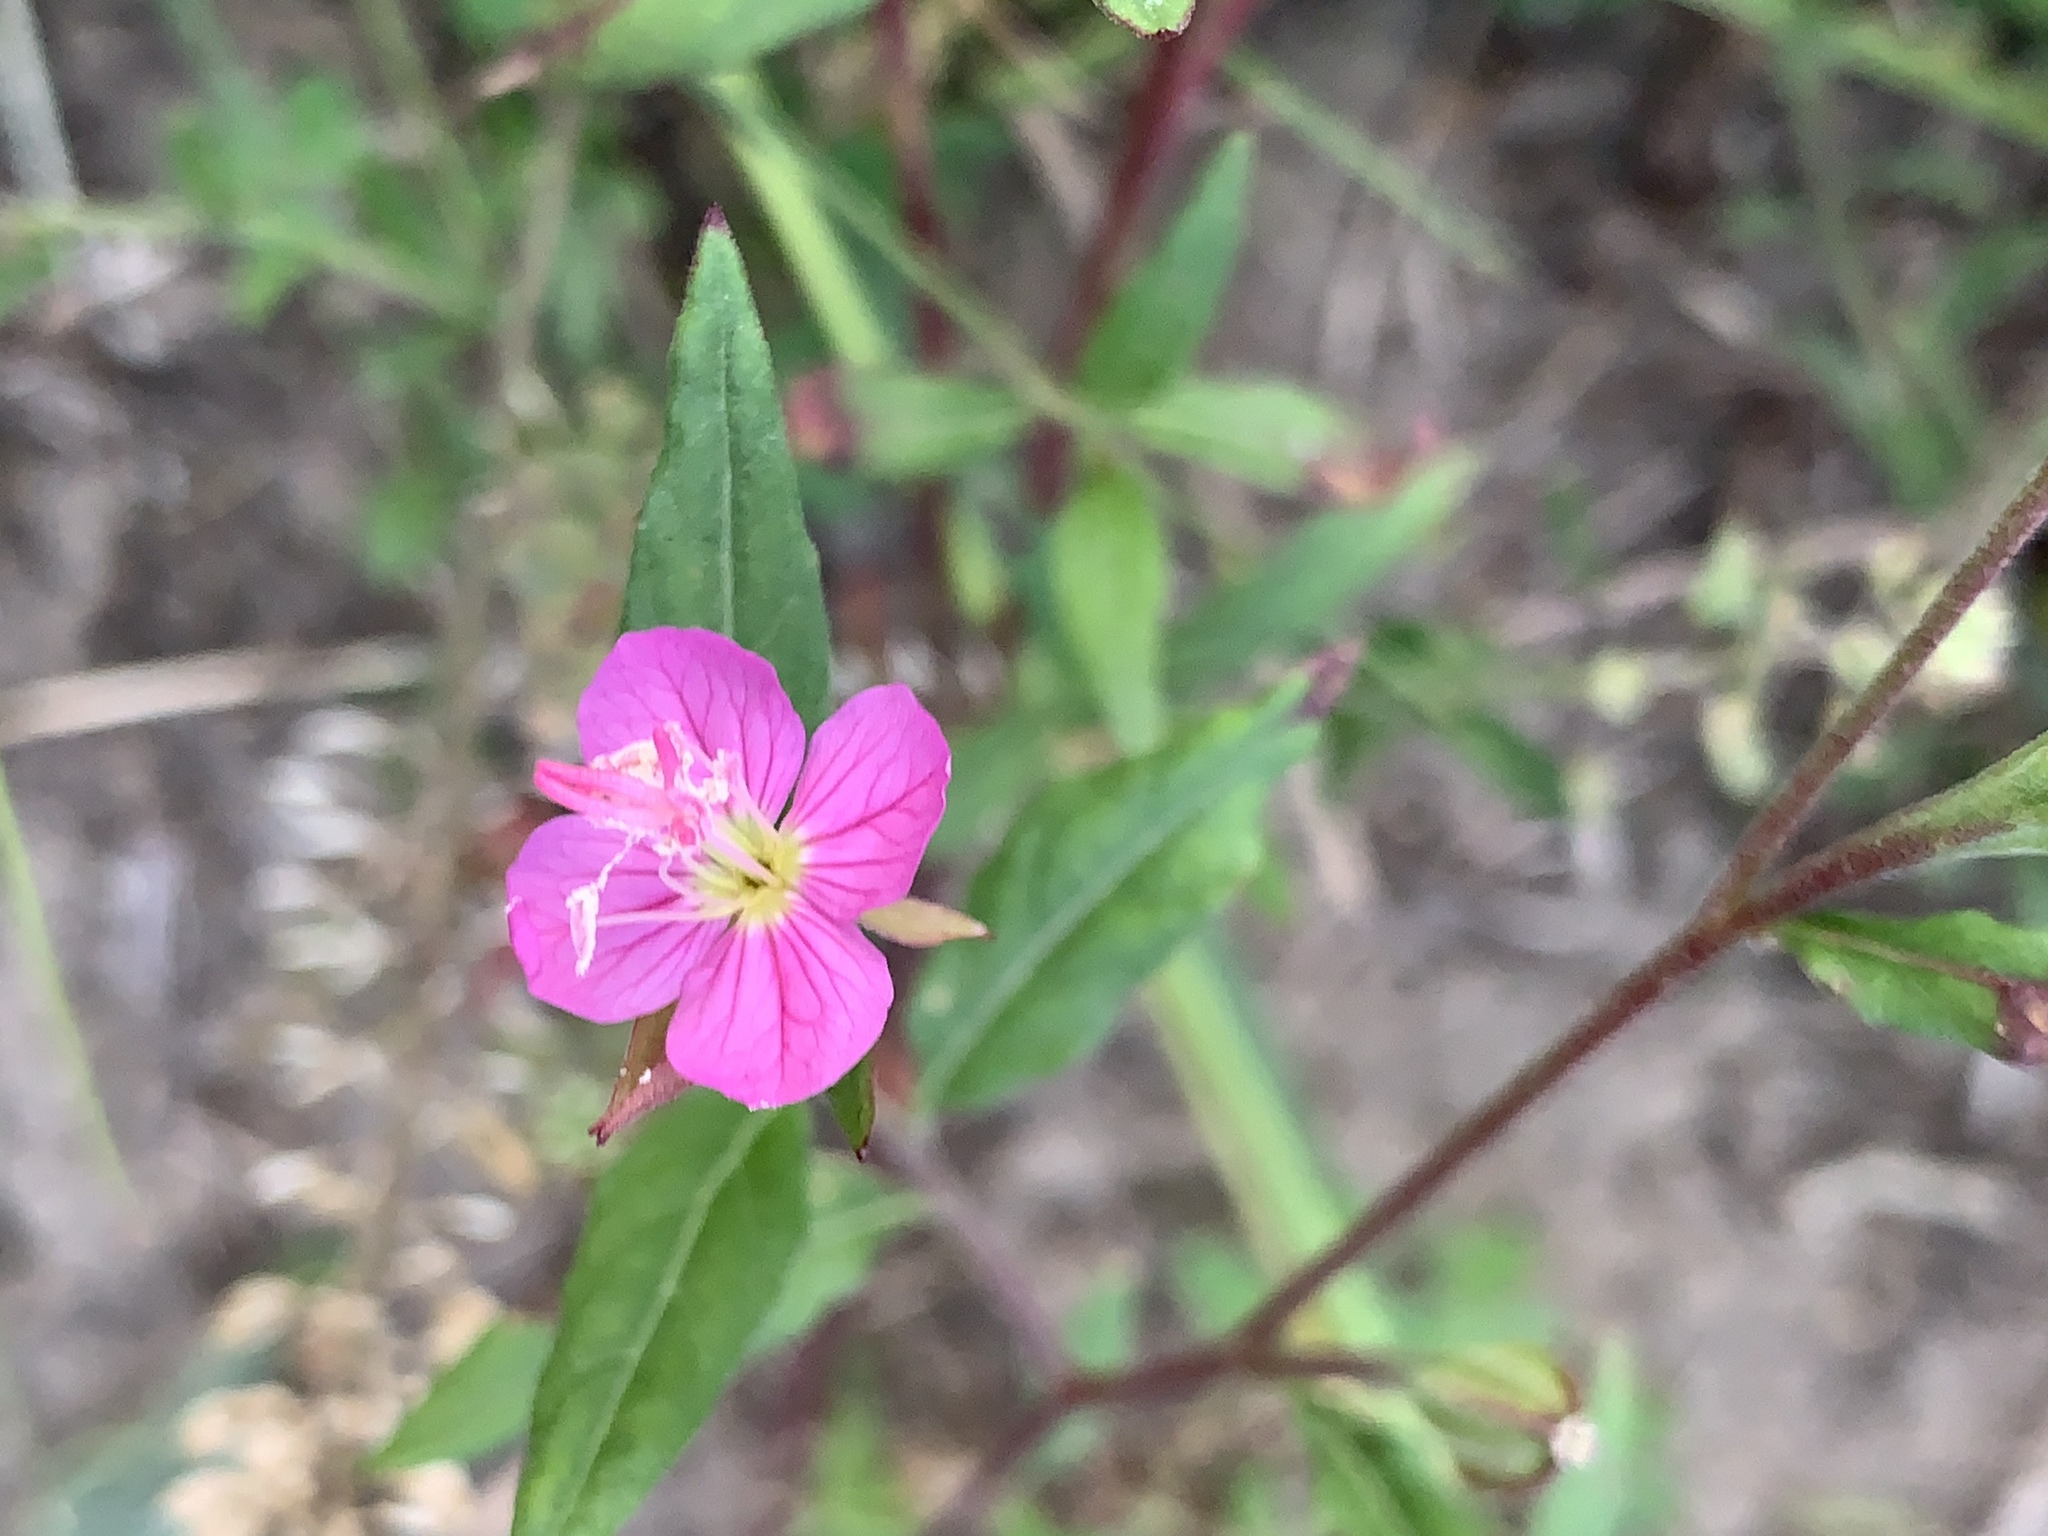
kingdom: Plantae
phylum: Tracheophyta
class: Magnoliopsida
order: Myrtales
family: Onagraceae
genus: Oenothera
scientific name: Oenothera rosea
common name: Rosy evening-primrose
